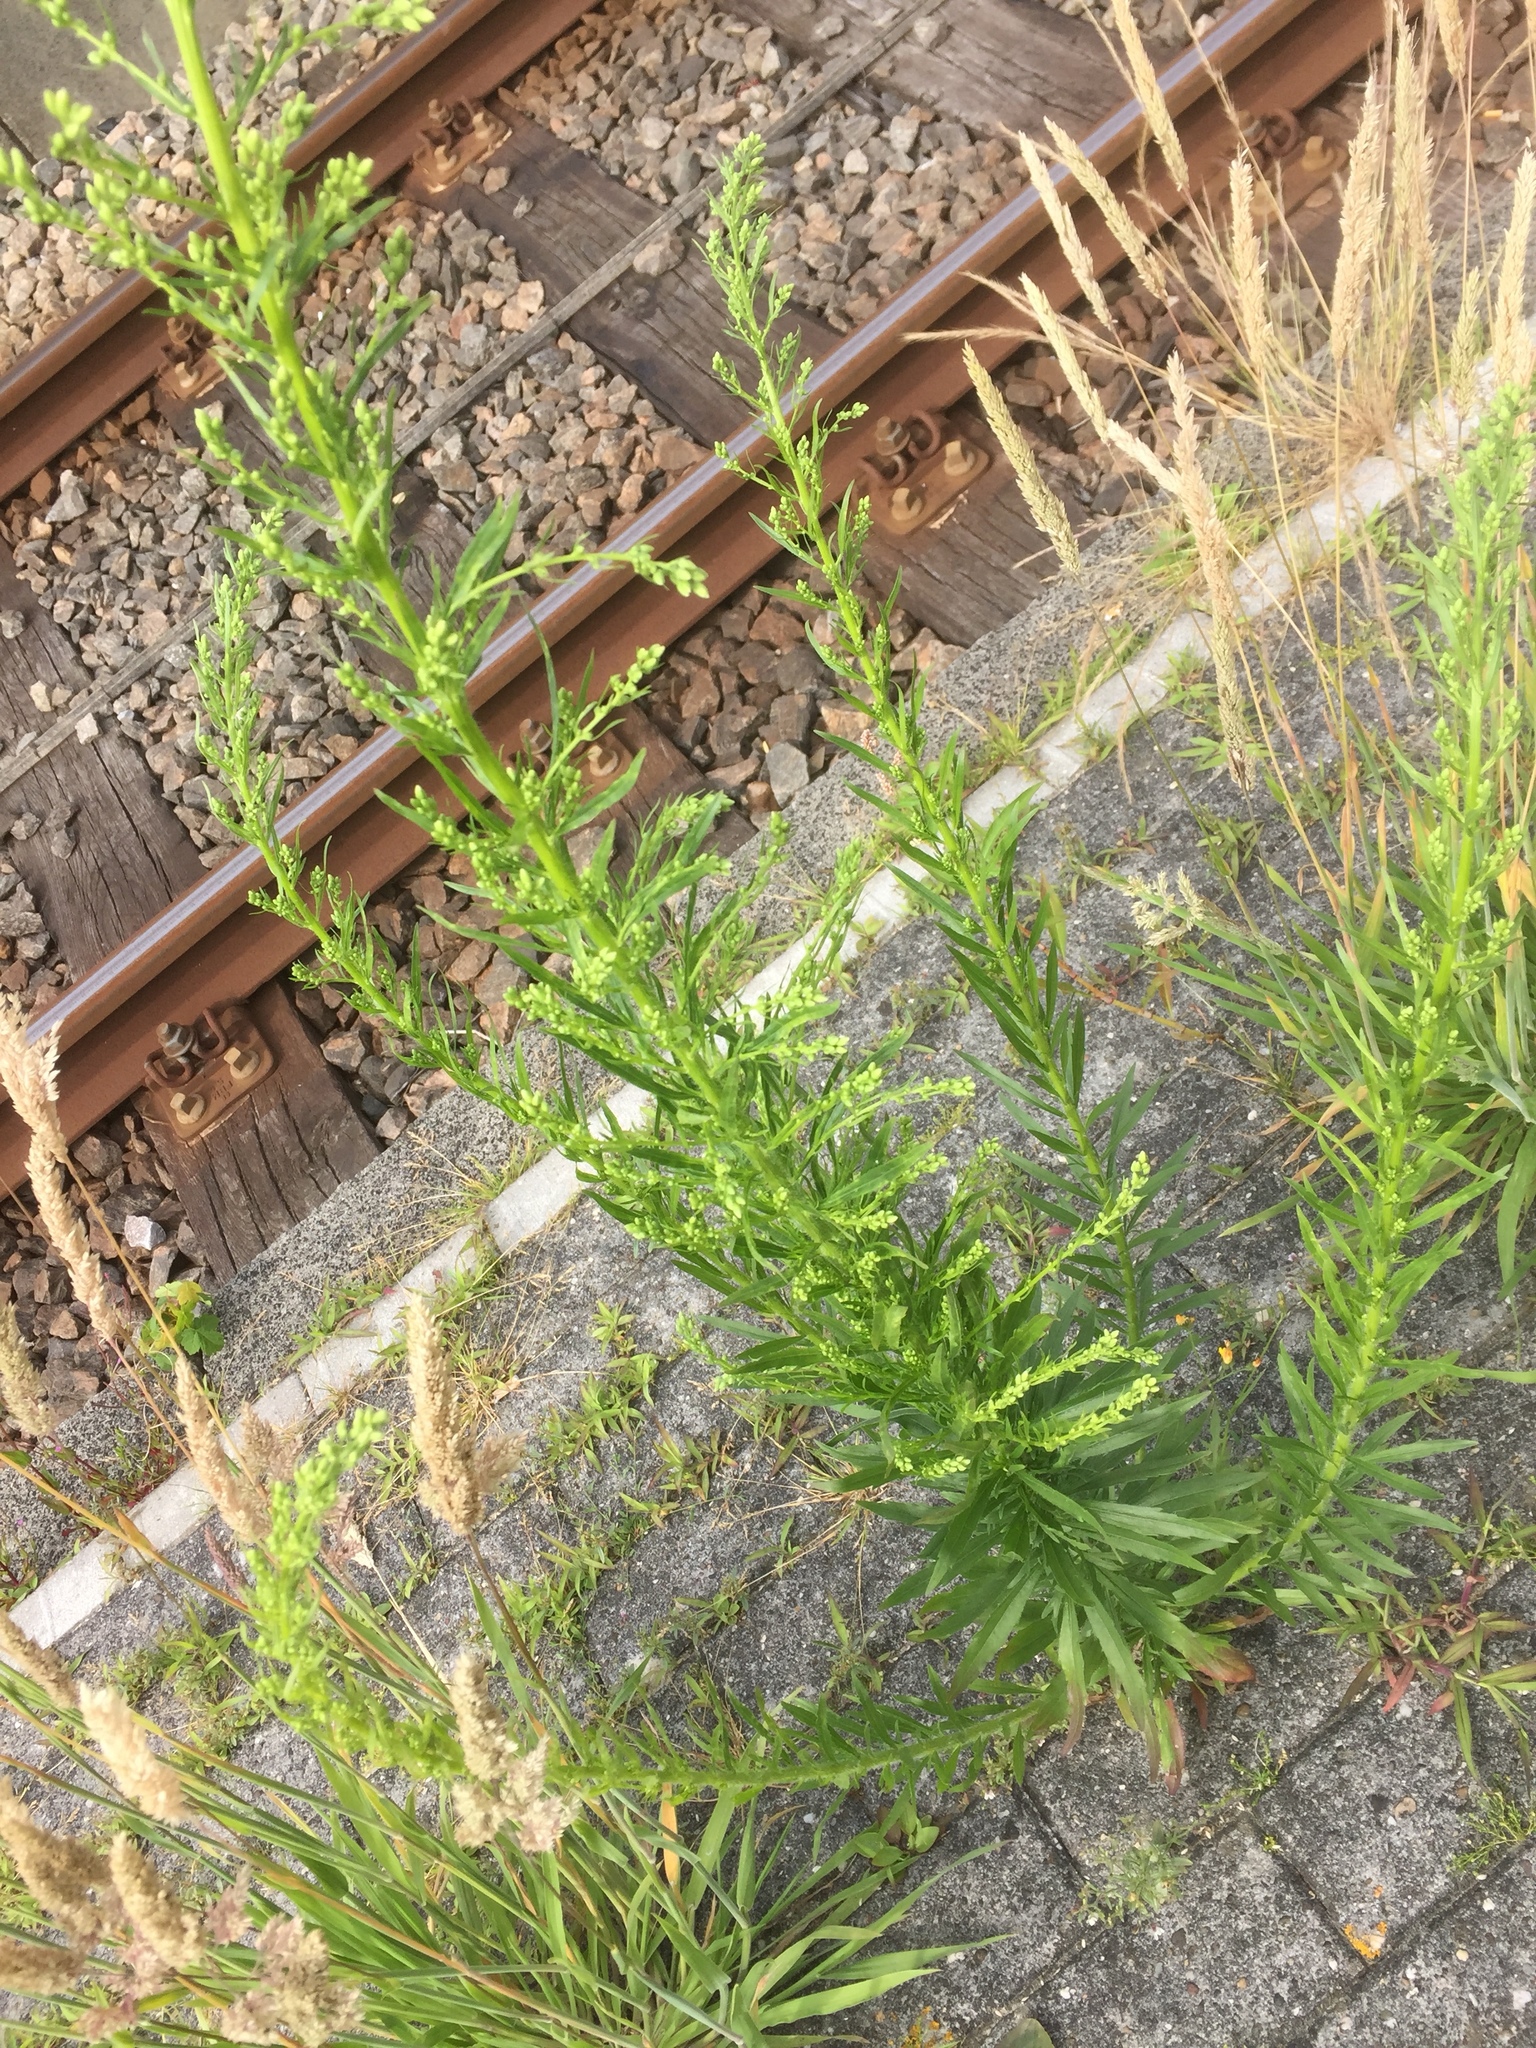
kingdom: Plantae
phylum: Tracheophyta
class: Magnoliopsida
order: Asterales
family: Asteraceae
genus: Erigeron
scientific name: Erigeron canadensis
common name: Canadian fleabane
